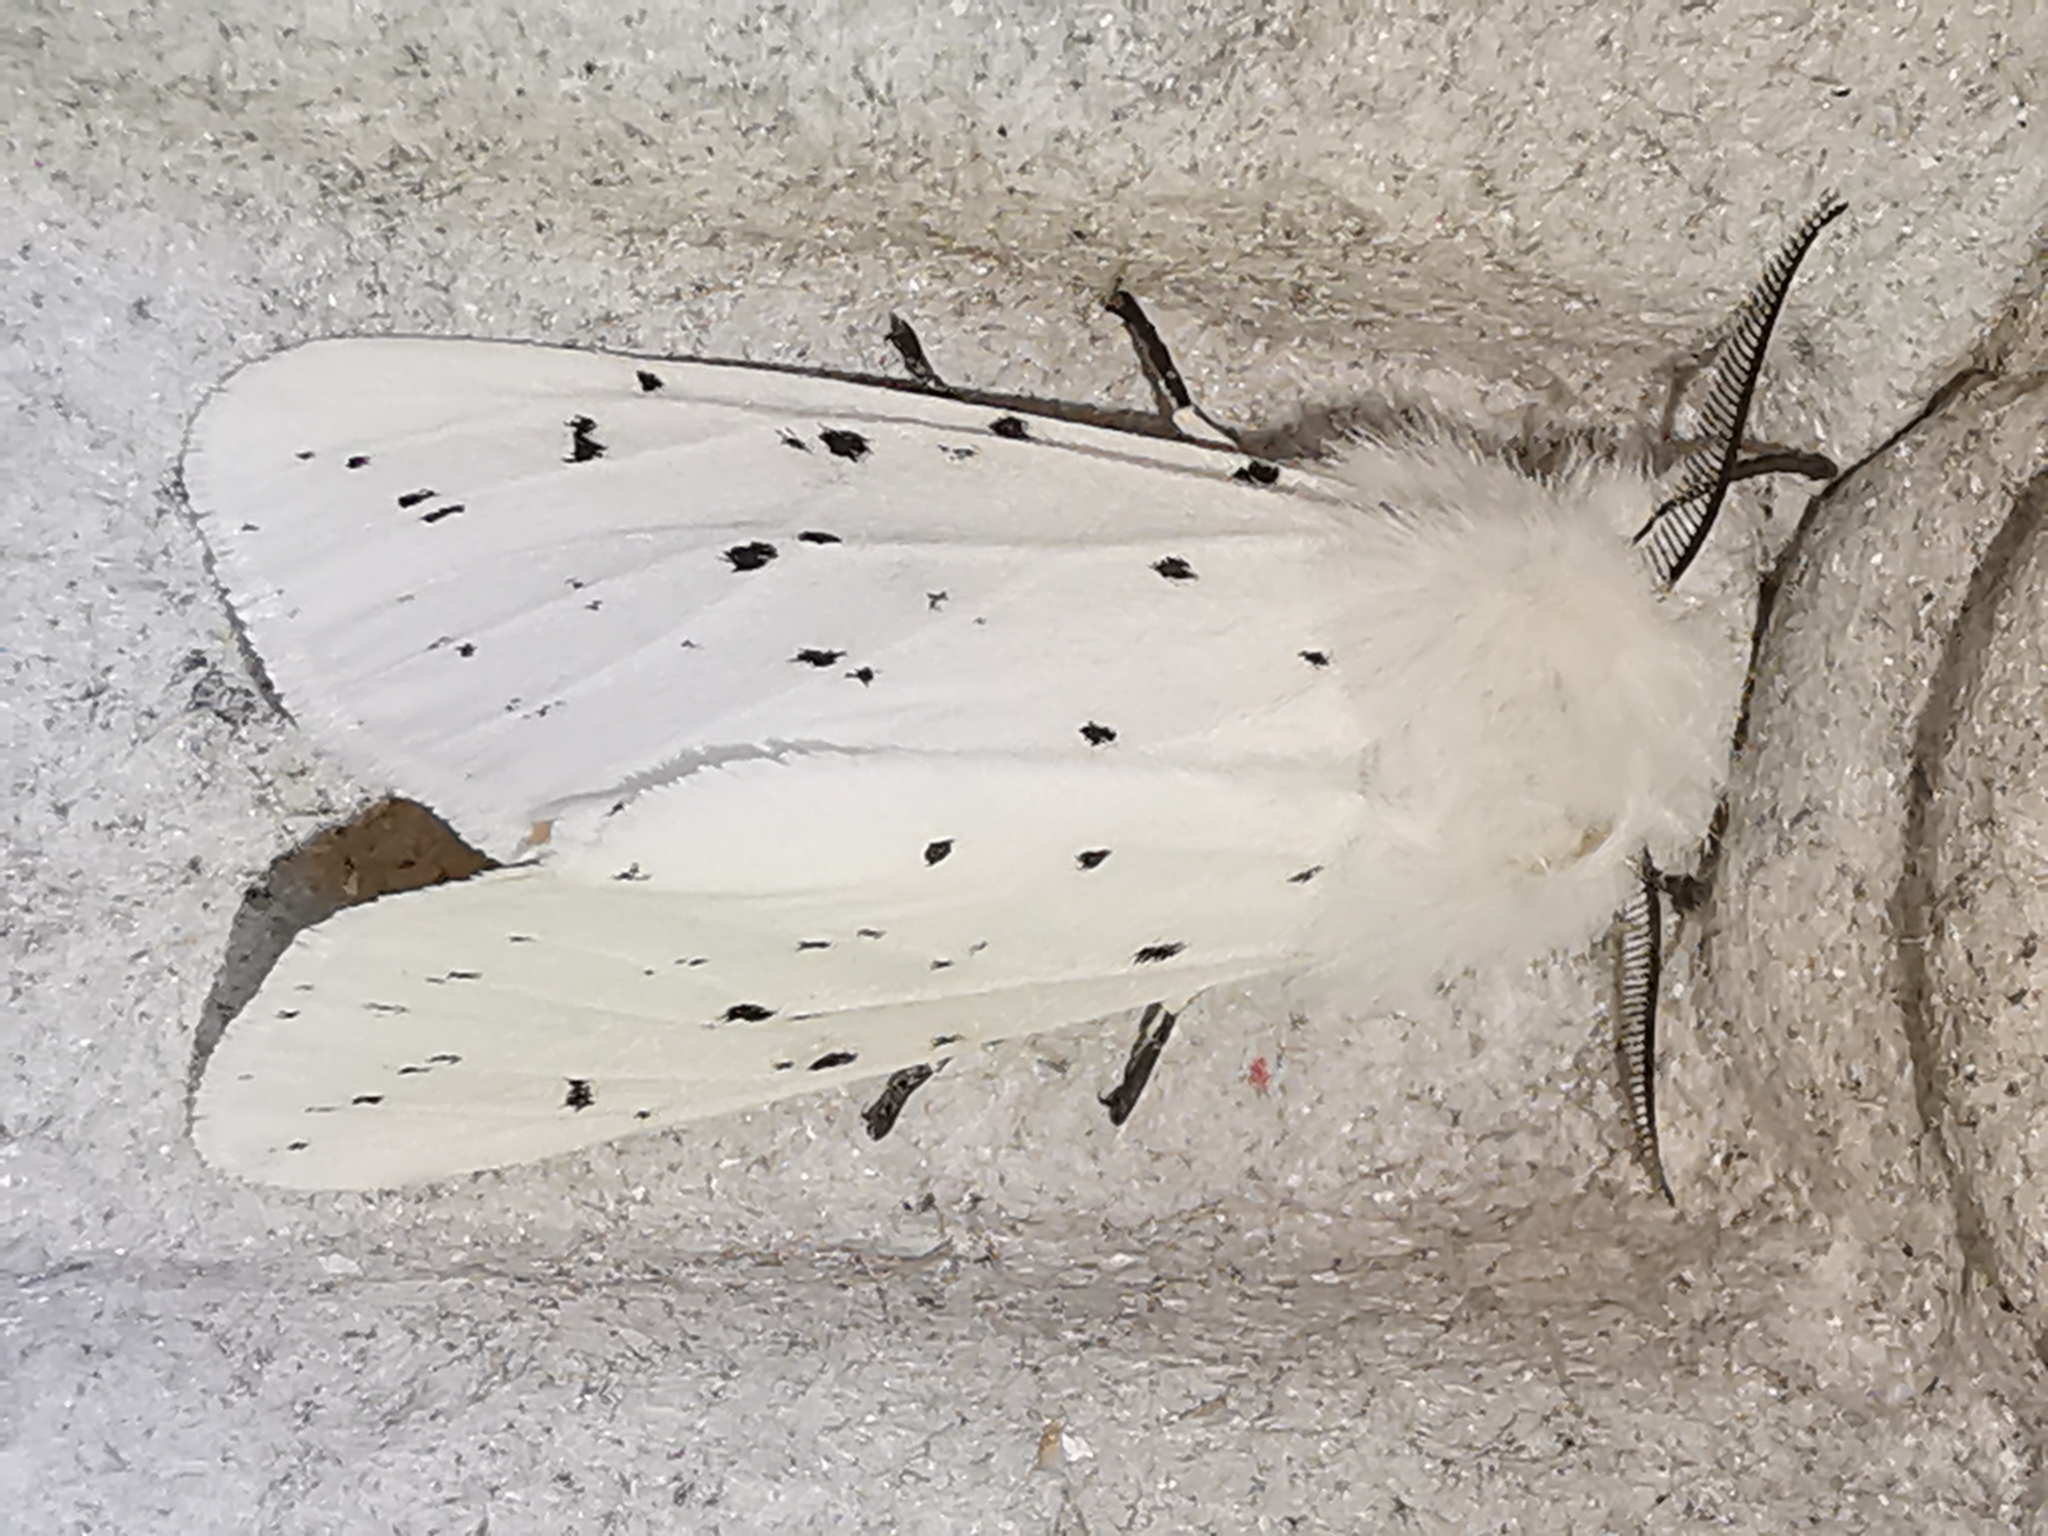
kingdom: Animalia
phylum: Arthropoda
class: Insecta
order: Lepidoptera
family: Erebidae
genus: Spilosoma
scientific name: Spilosoma lubricipeda
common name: White ermine
